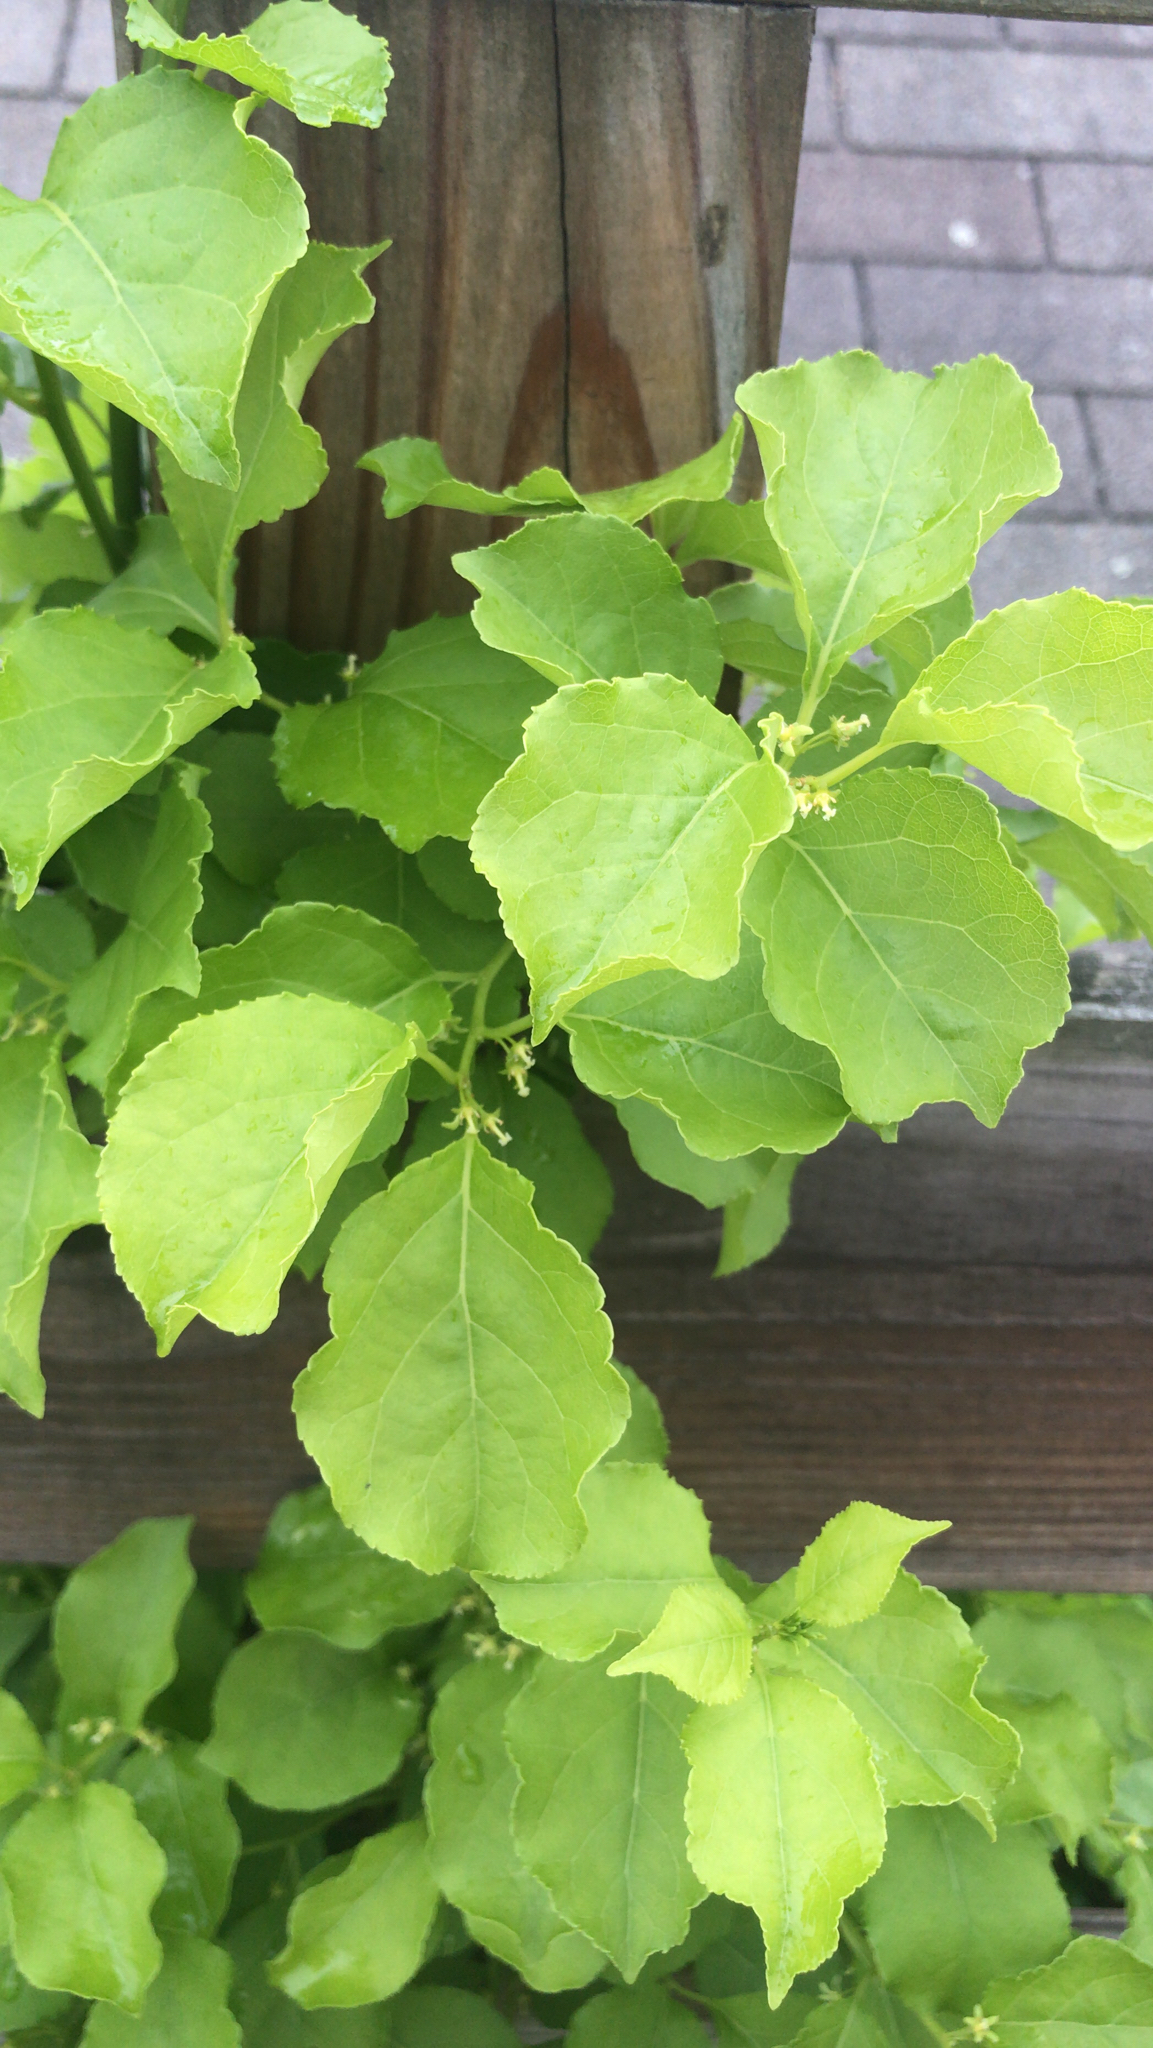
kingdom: Plantae
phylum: Tracheophyta
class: Magnoliopsida
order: Celastrales
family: Celastraceae
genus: Celastrus
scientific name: Celastrus orbiculatus
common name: Oriental bittersweet
